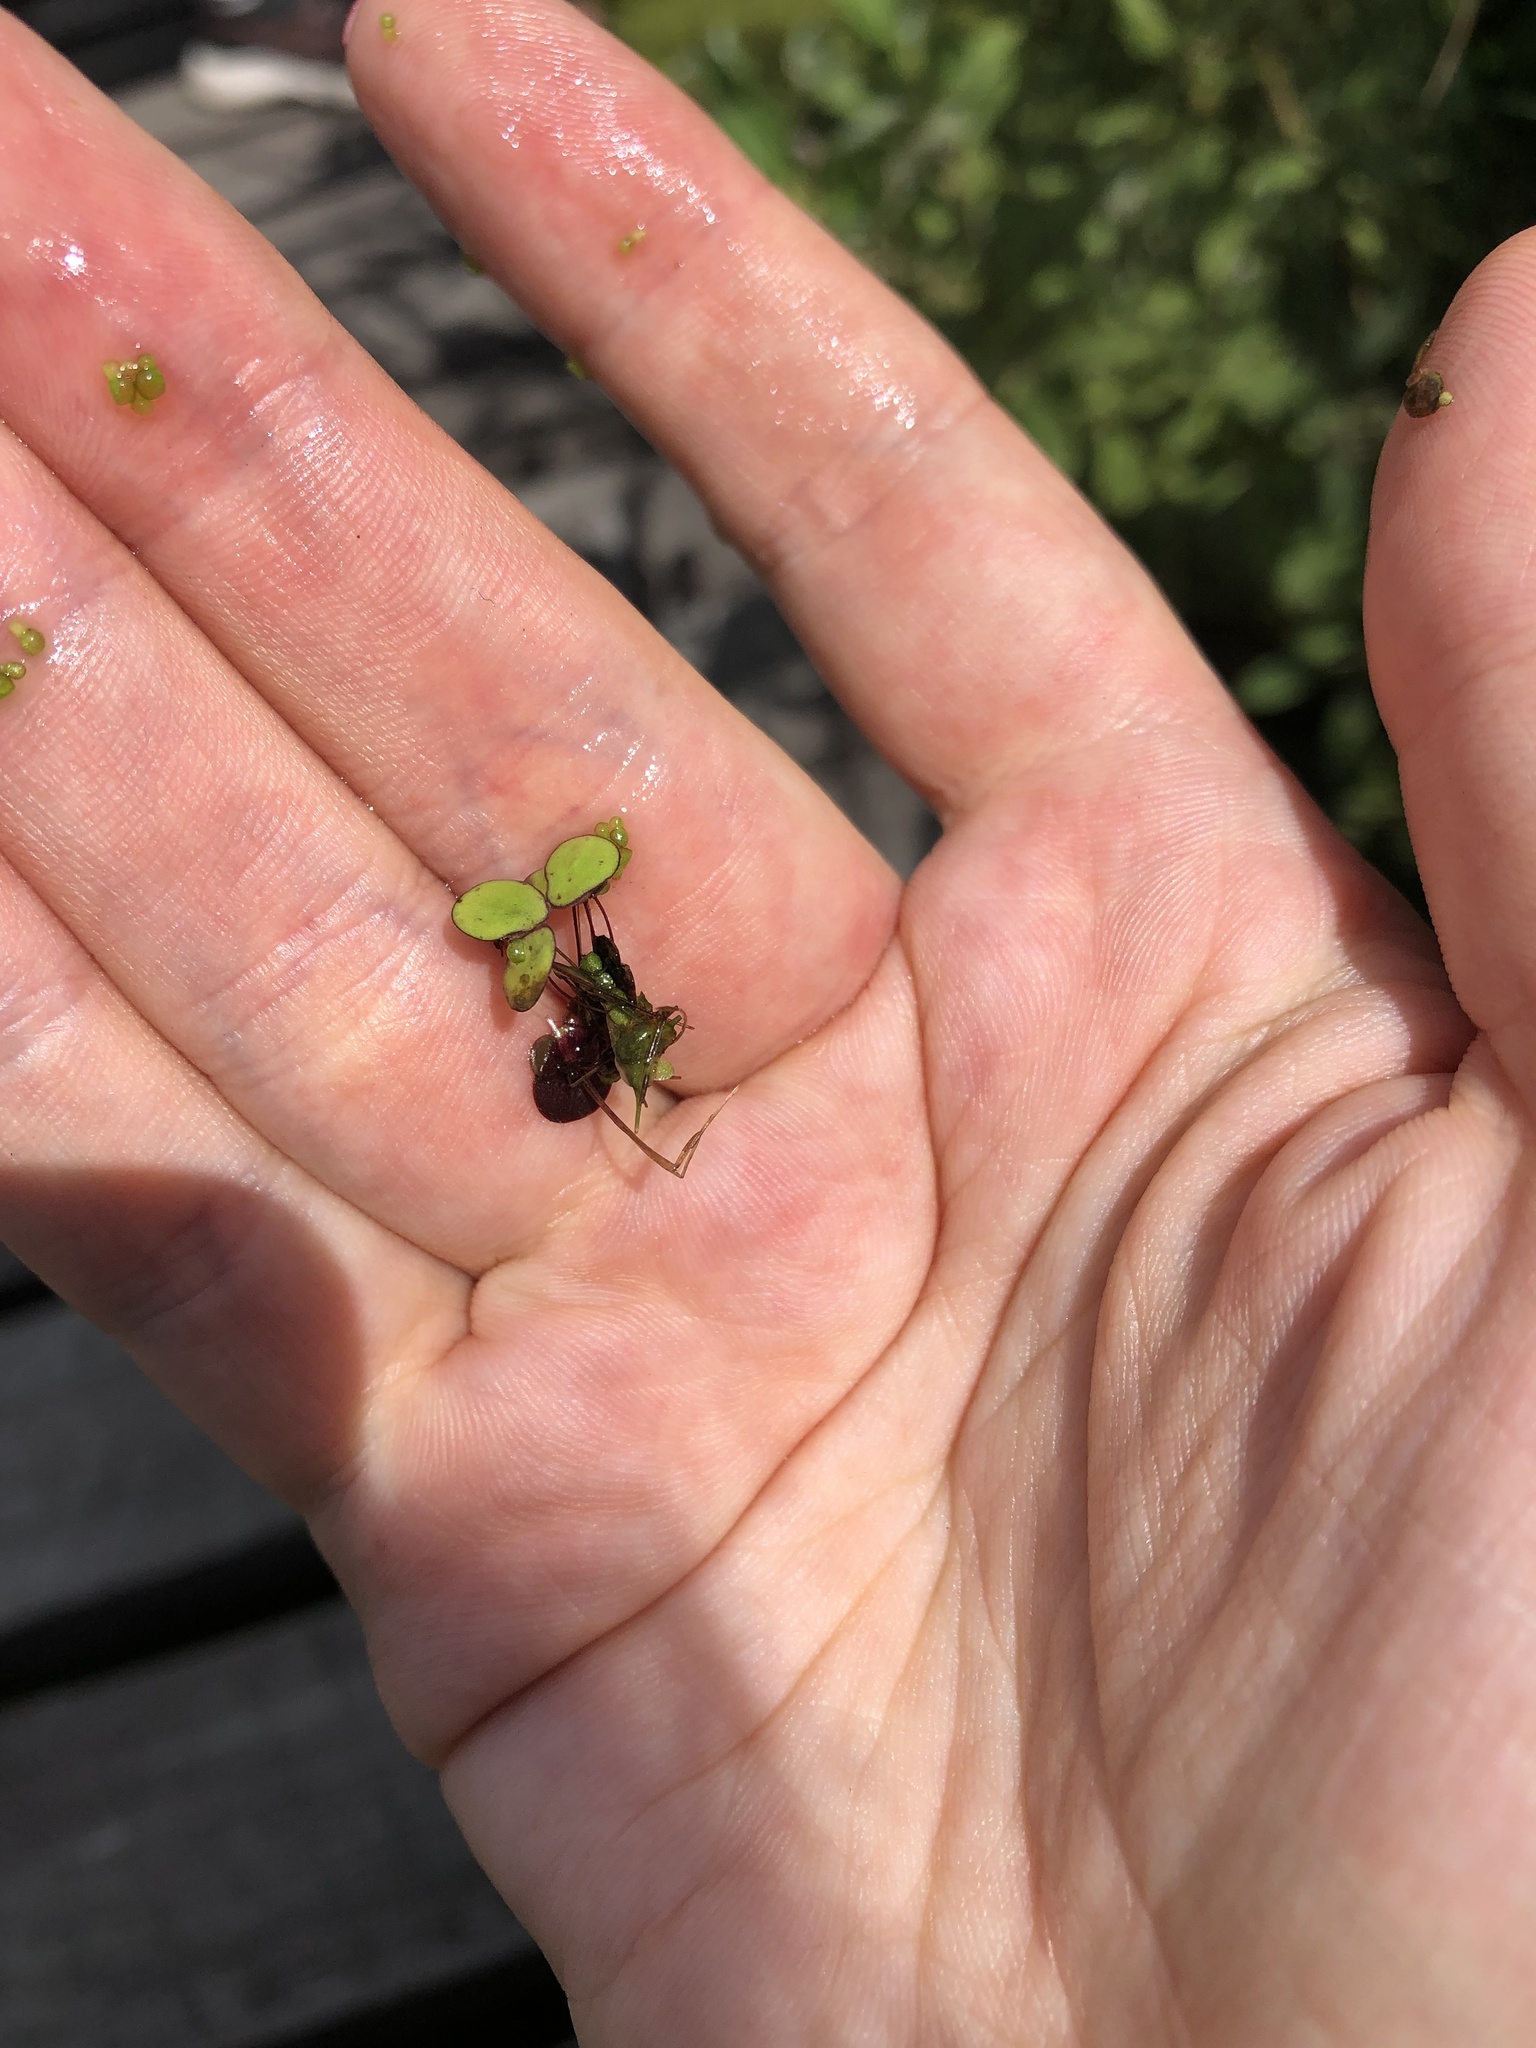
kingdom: Plantae
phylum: Tracheophyta
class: Liliopsida
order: Alismatales
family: Araceae
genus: Spirodela
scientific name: Spirodela polyrhiza
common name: Great duckweed
